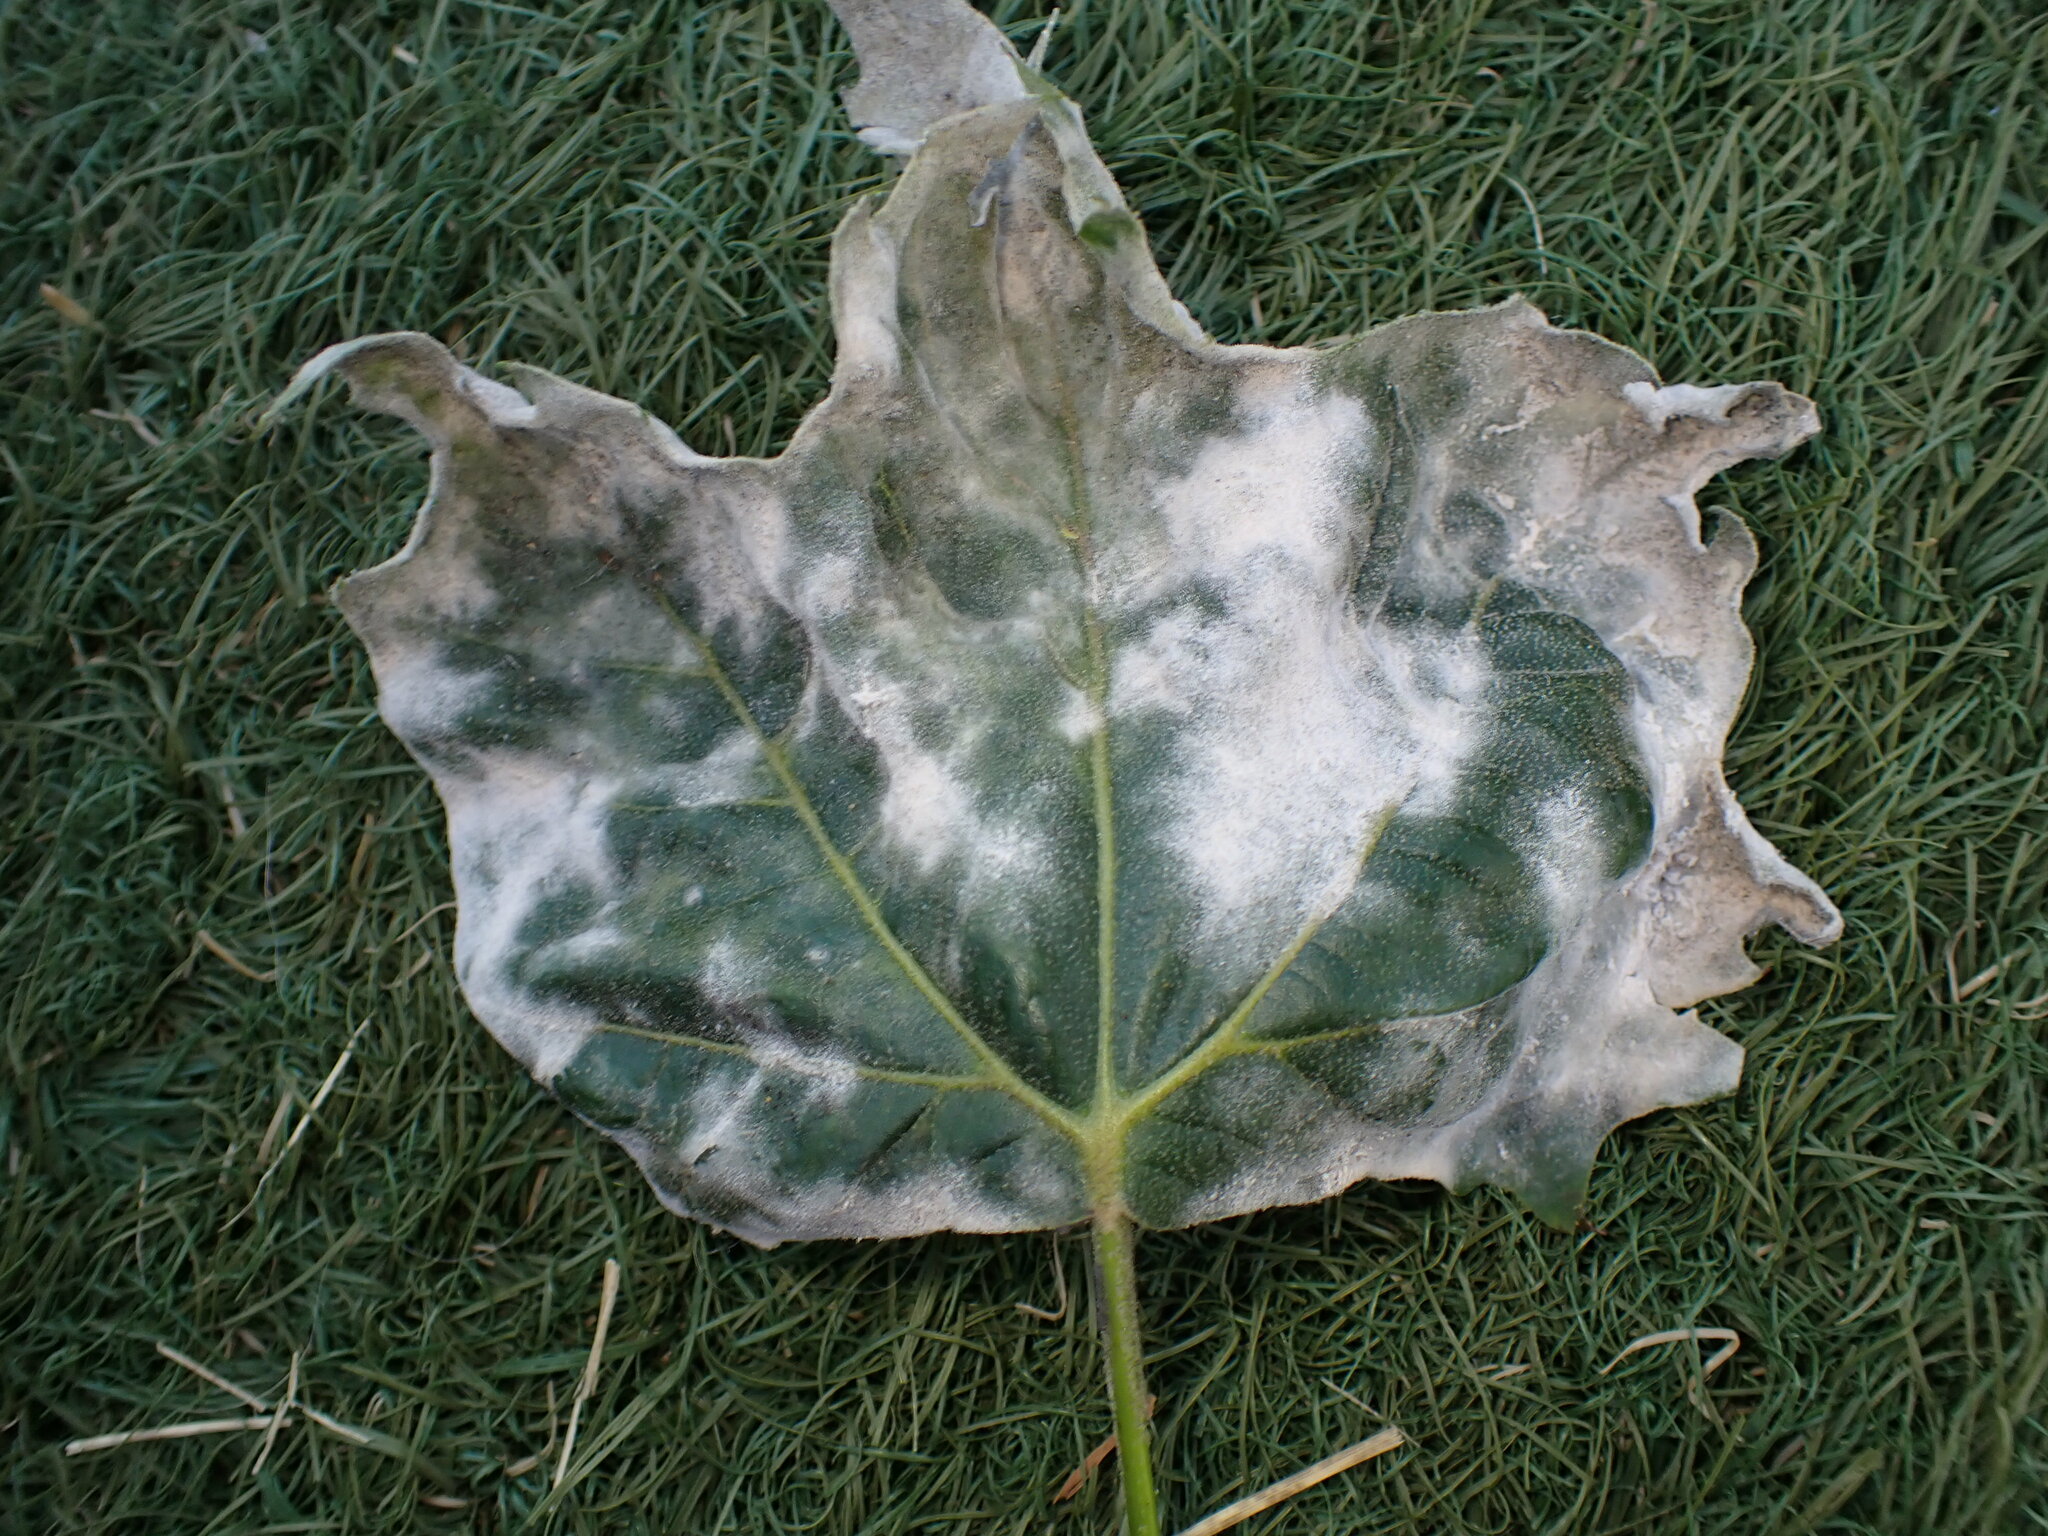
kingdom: Fungi
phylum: Ascomycota
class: Leotiomycetes
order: Helotiales
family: Erysiphaceae
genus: Erysiphe
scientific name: Erysiphe platani
